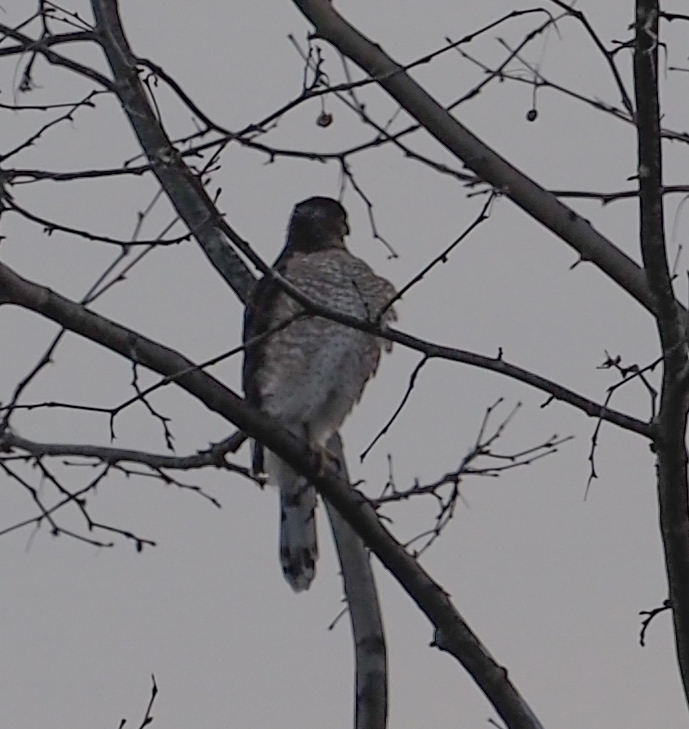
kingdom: Animalia
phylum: Chordata
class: Aves
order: Accipitriformes
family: Accipitridae
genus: Accipiter
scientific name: Accipiter cooperii
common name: Cooper's hawk
